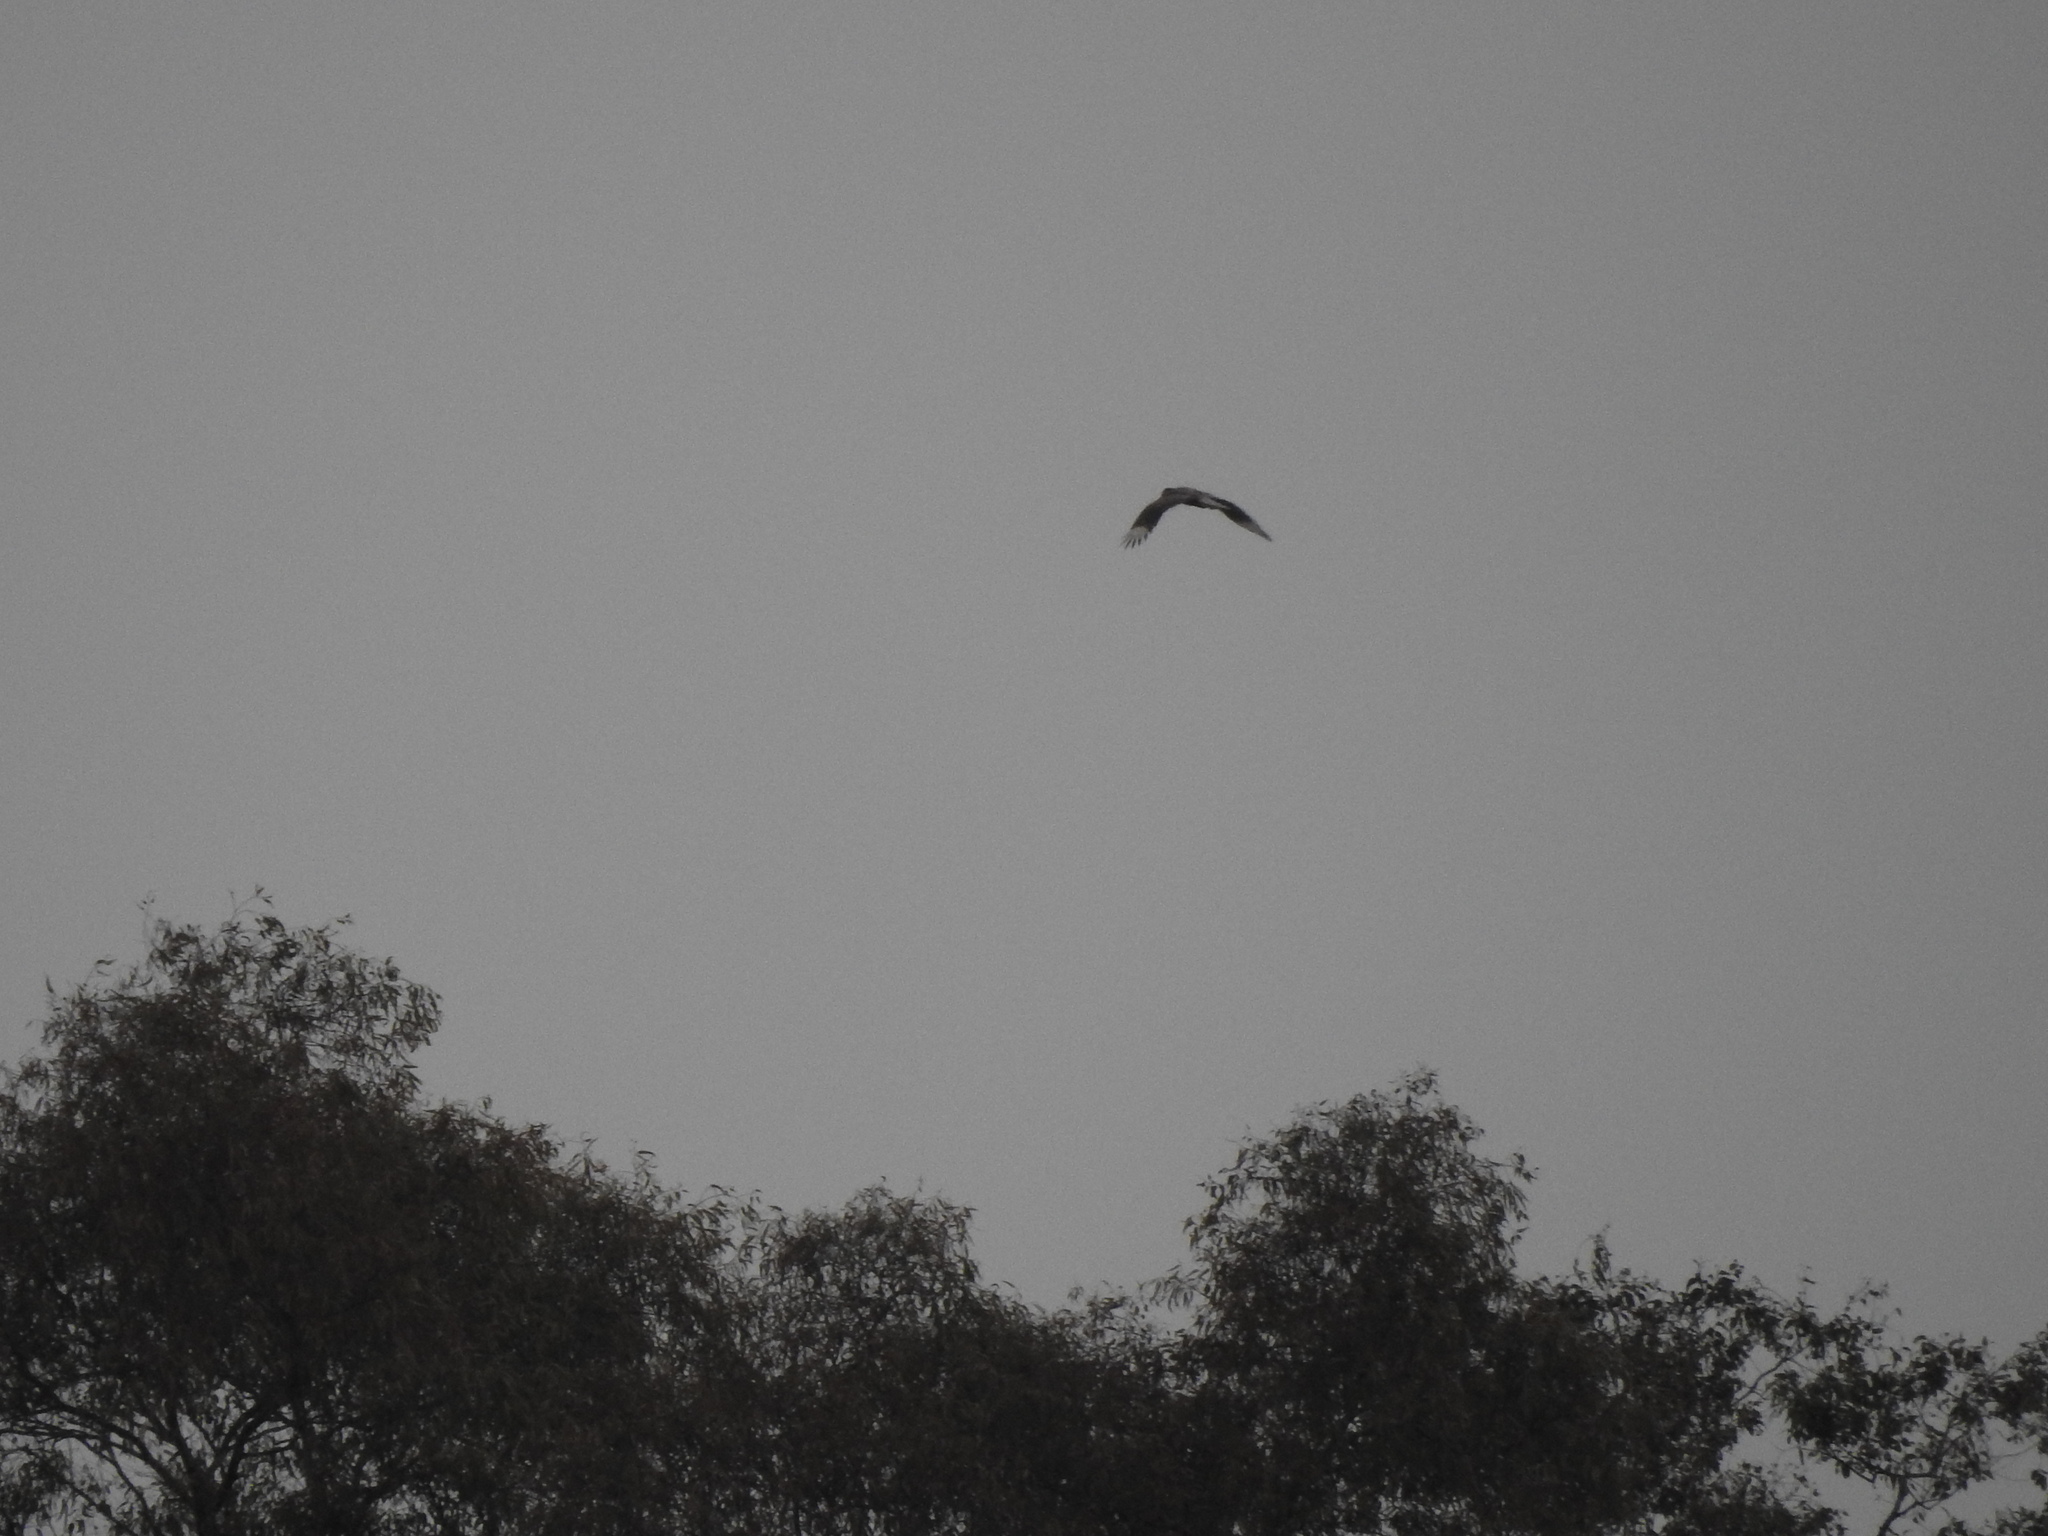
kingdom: Animalia
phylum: Chordata
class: Aves
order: Falconiformes
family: Falconidae
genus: Caracara
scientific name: Caracara plancus
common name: Southern caracara
